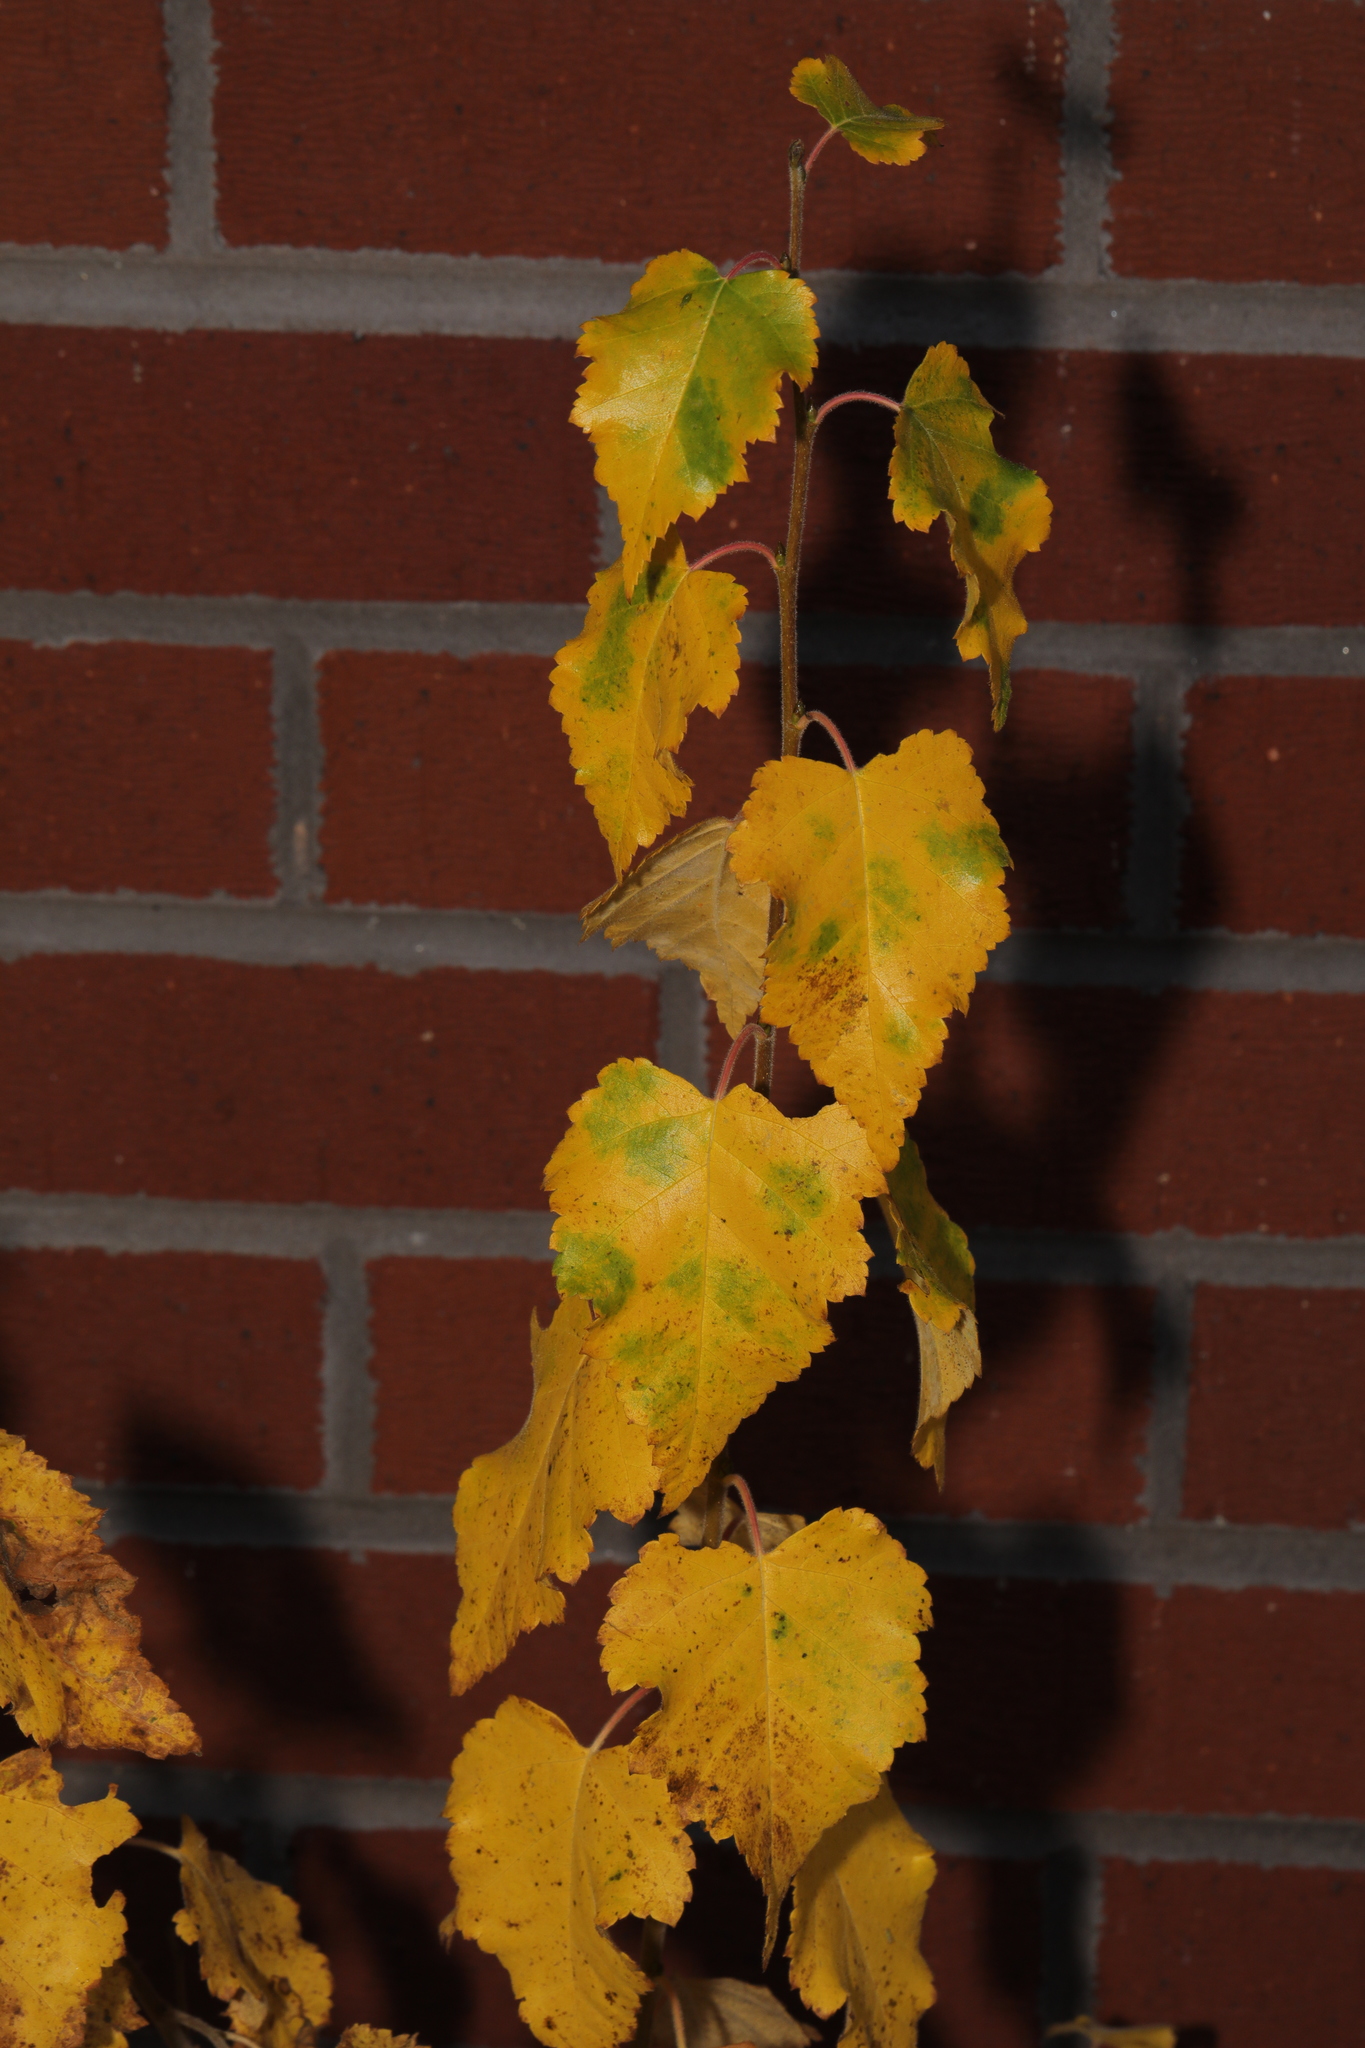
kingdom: Plantae
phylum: Tracheophyta
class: Magnoliopsida
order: Fagales
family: Betulaceae
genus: Betula
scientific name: Betula pendula
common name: Silver birch
